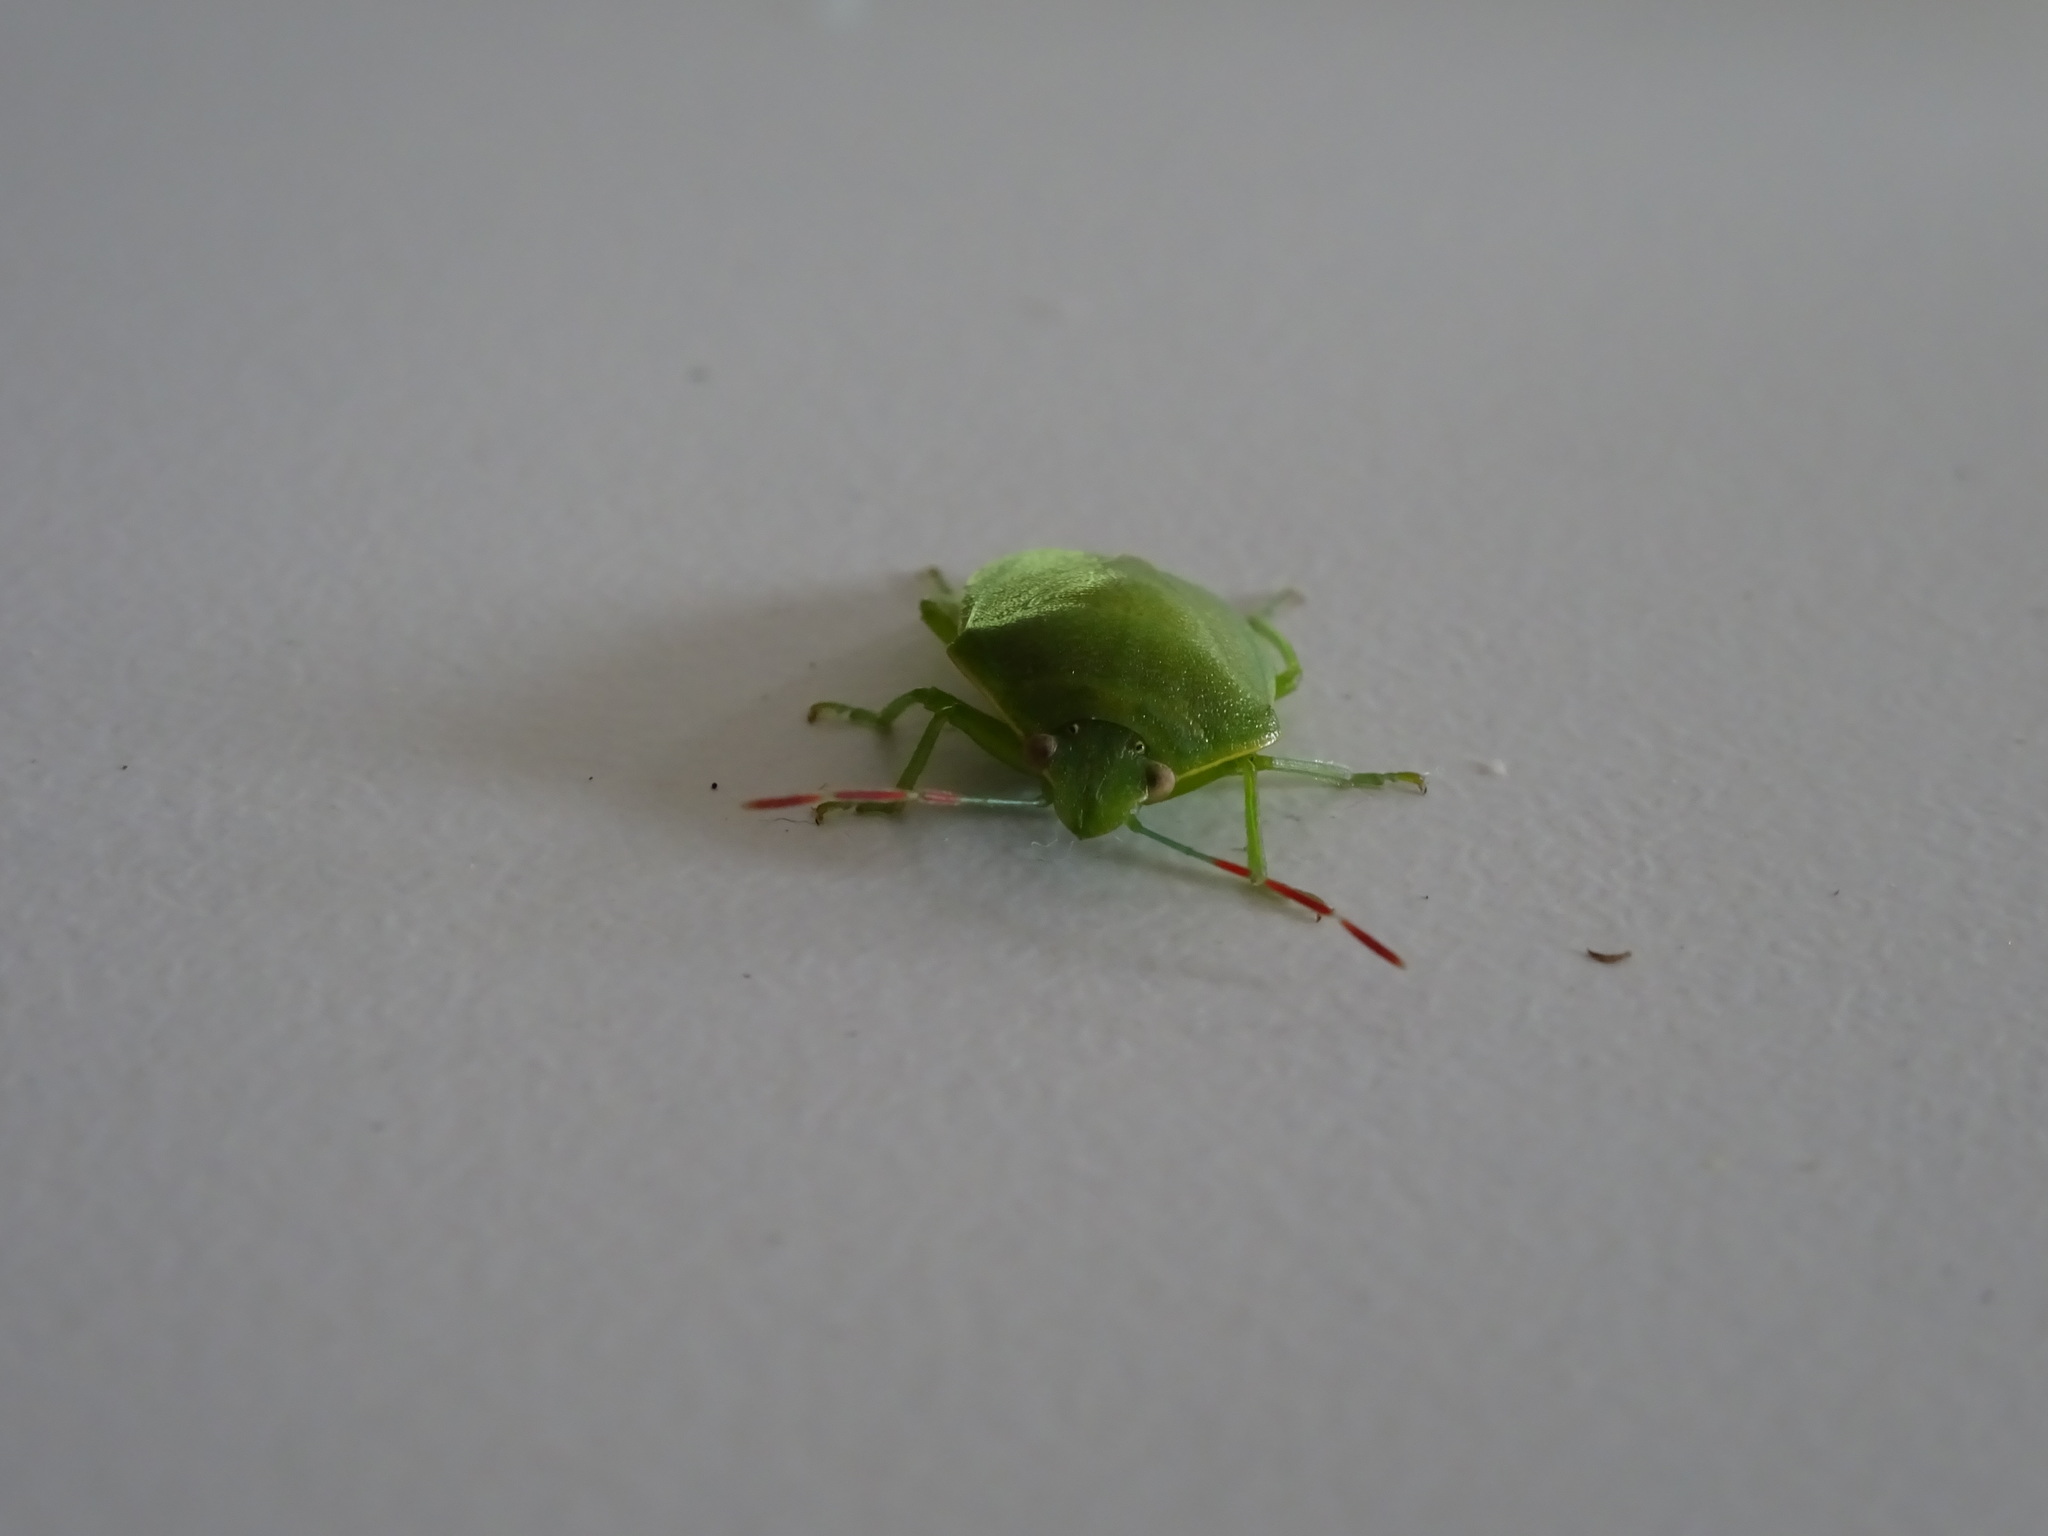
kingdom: Animalia
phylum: Arthropoda
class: Insecta
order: Hemiptera
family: Pentatomidae
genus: Acrosternum
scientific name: Acrosternum heegeri
